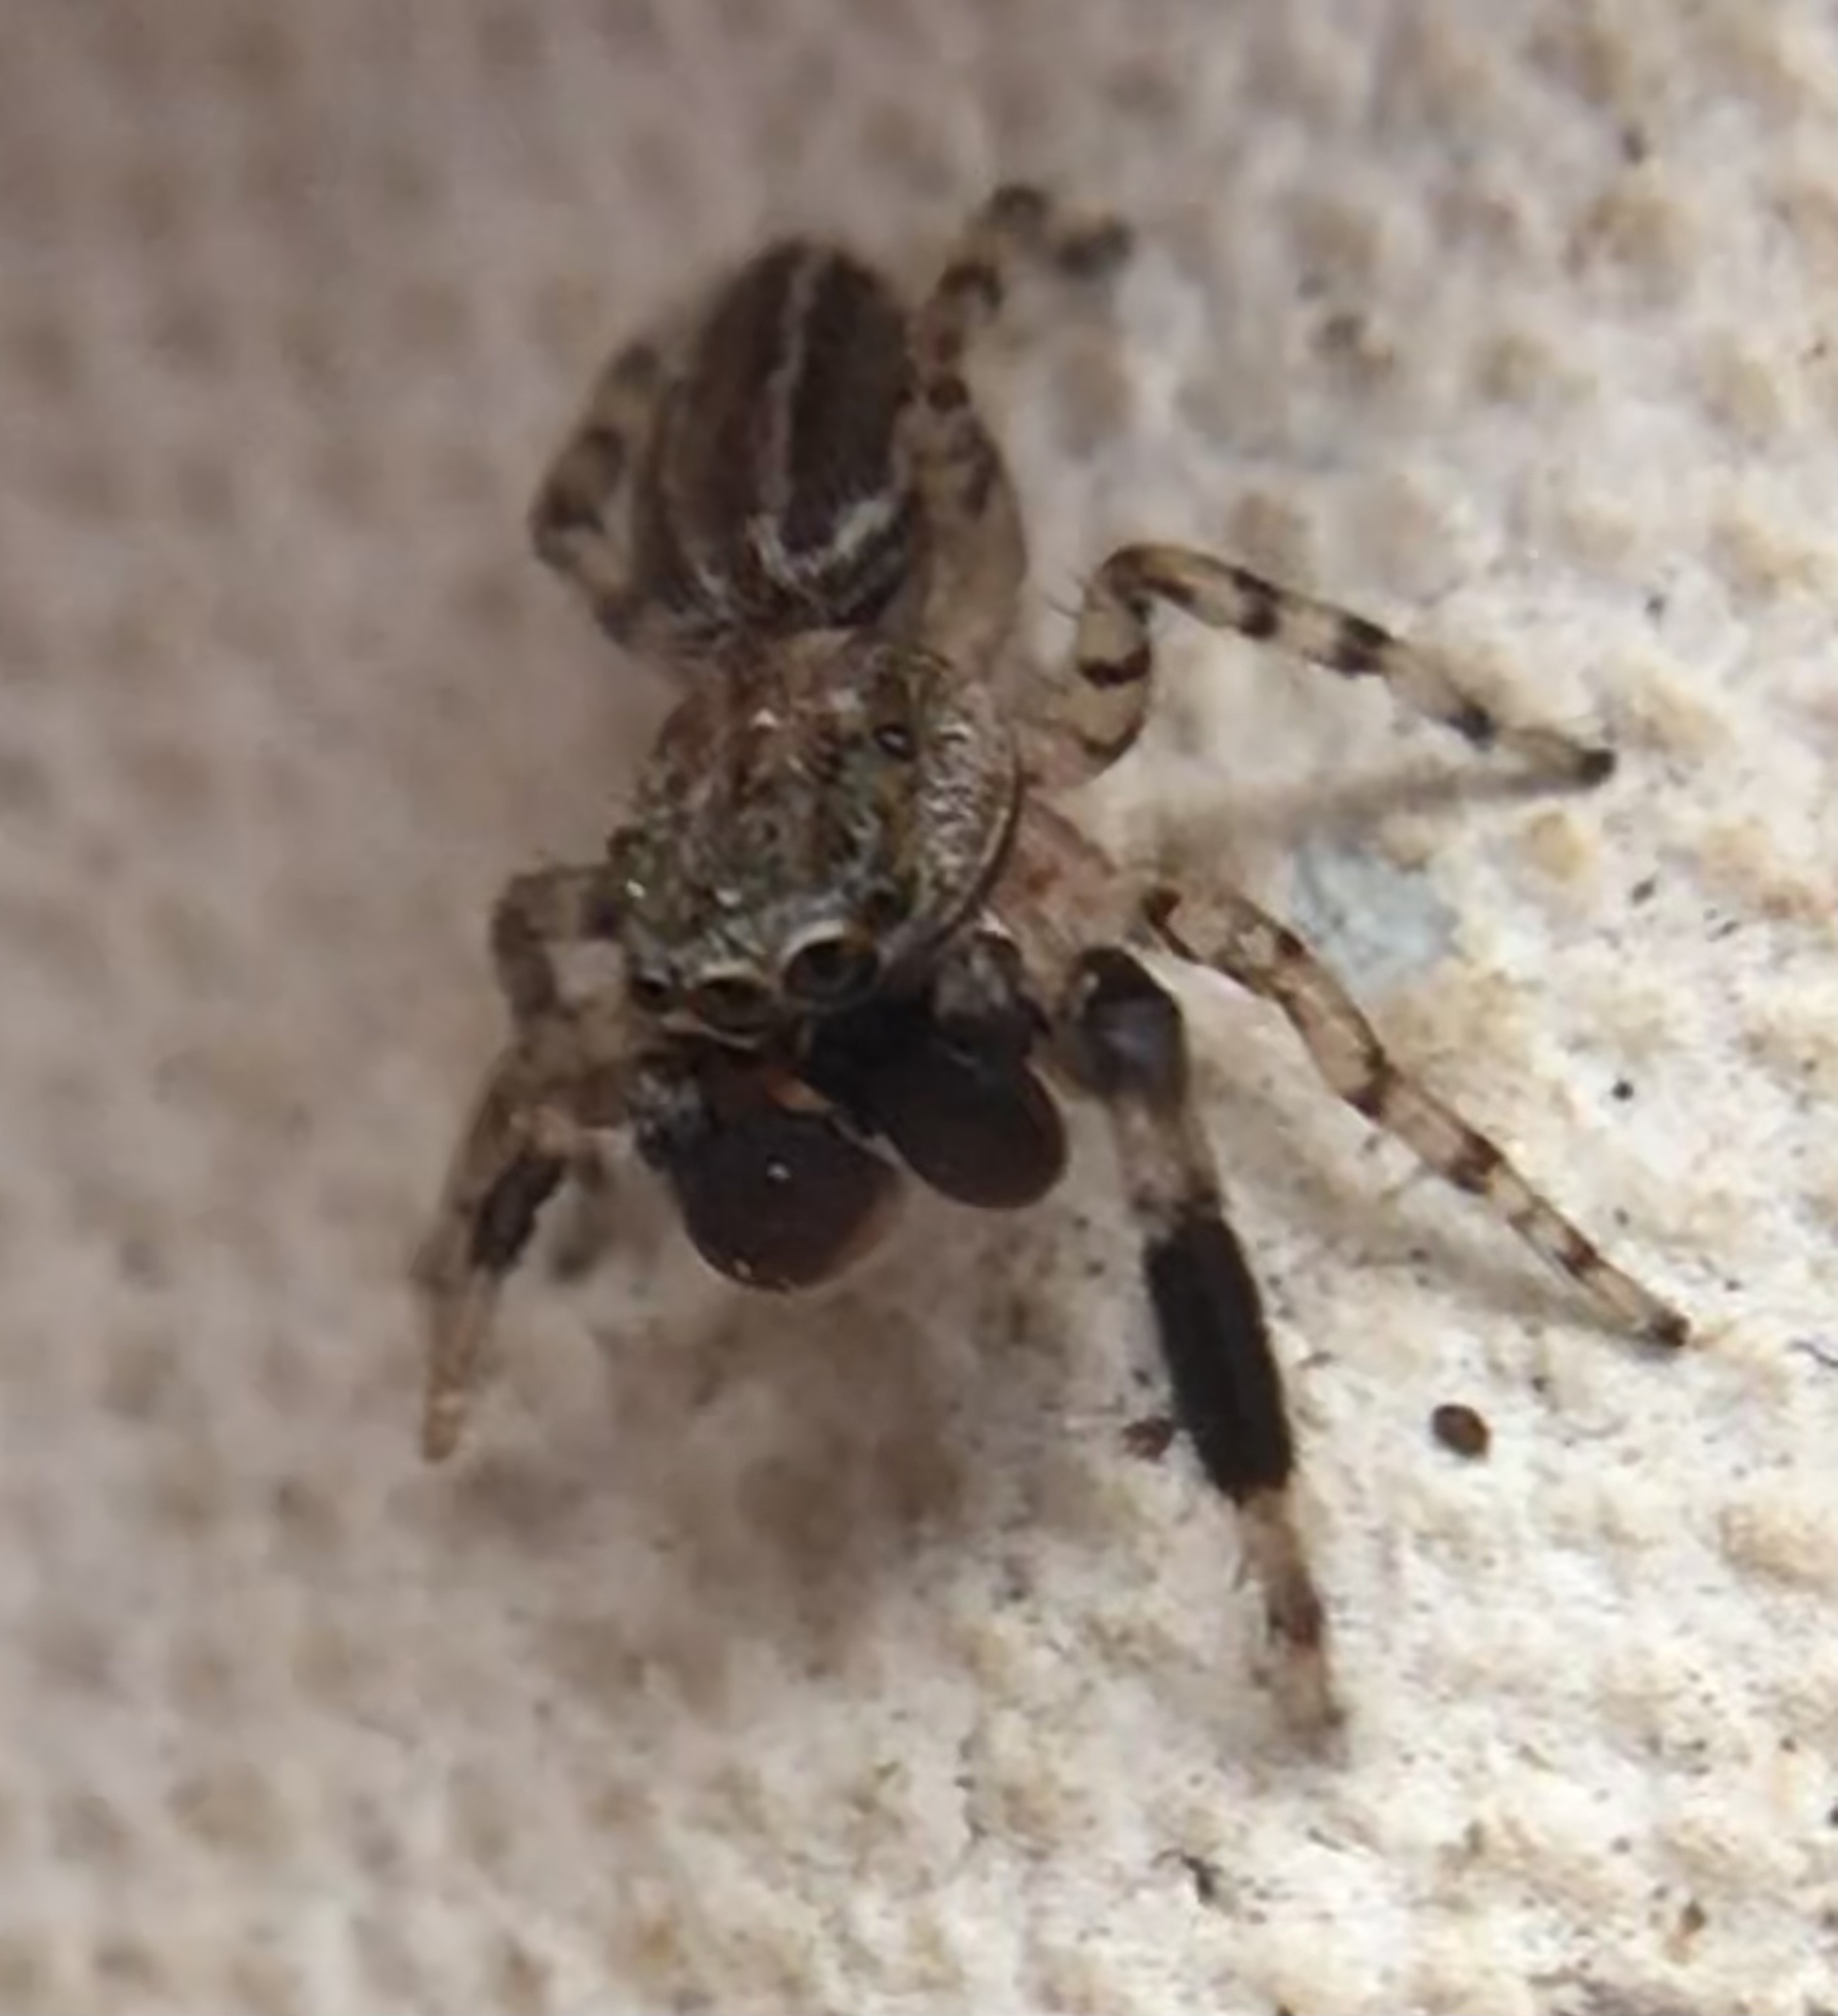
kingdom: Animalia
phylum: Arthropoda
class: Arachnida
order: Araneae
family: Salticidae
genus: Marpissa
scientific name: Marpissa lineata
